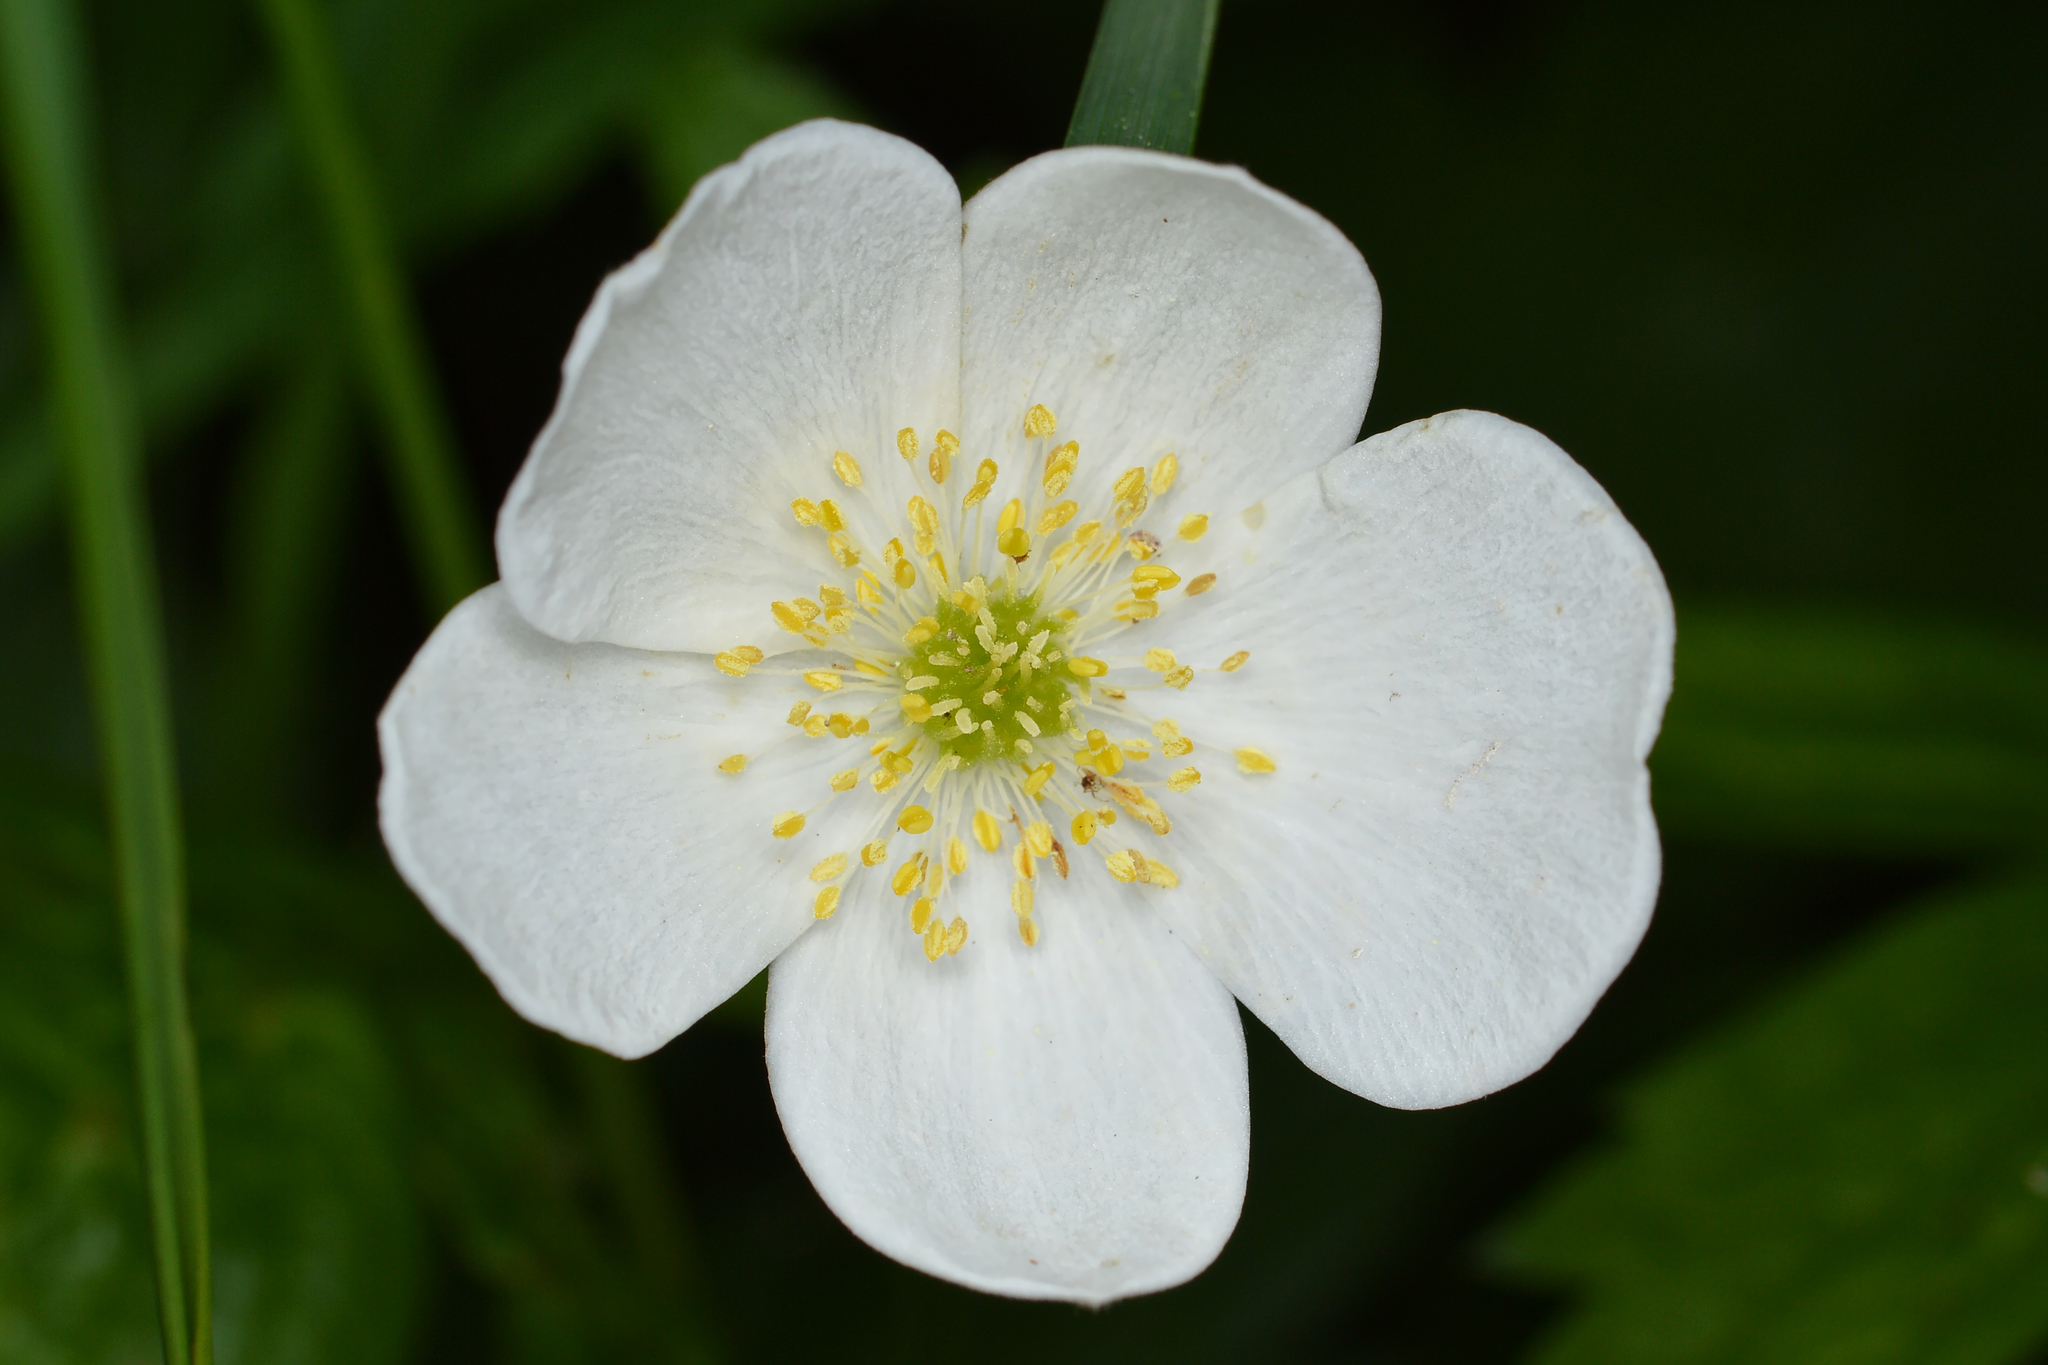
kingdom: Plantae
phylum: Tracheophyta
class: Magnoliopsida
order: Ranunculales
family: Ranunculaceae
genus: Anemonastrum
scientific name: Anemonastrum canadense
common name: Canada anemone
